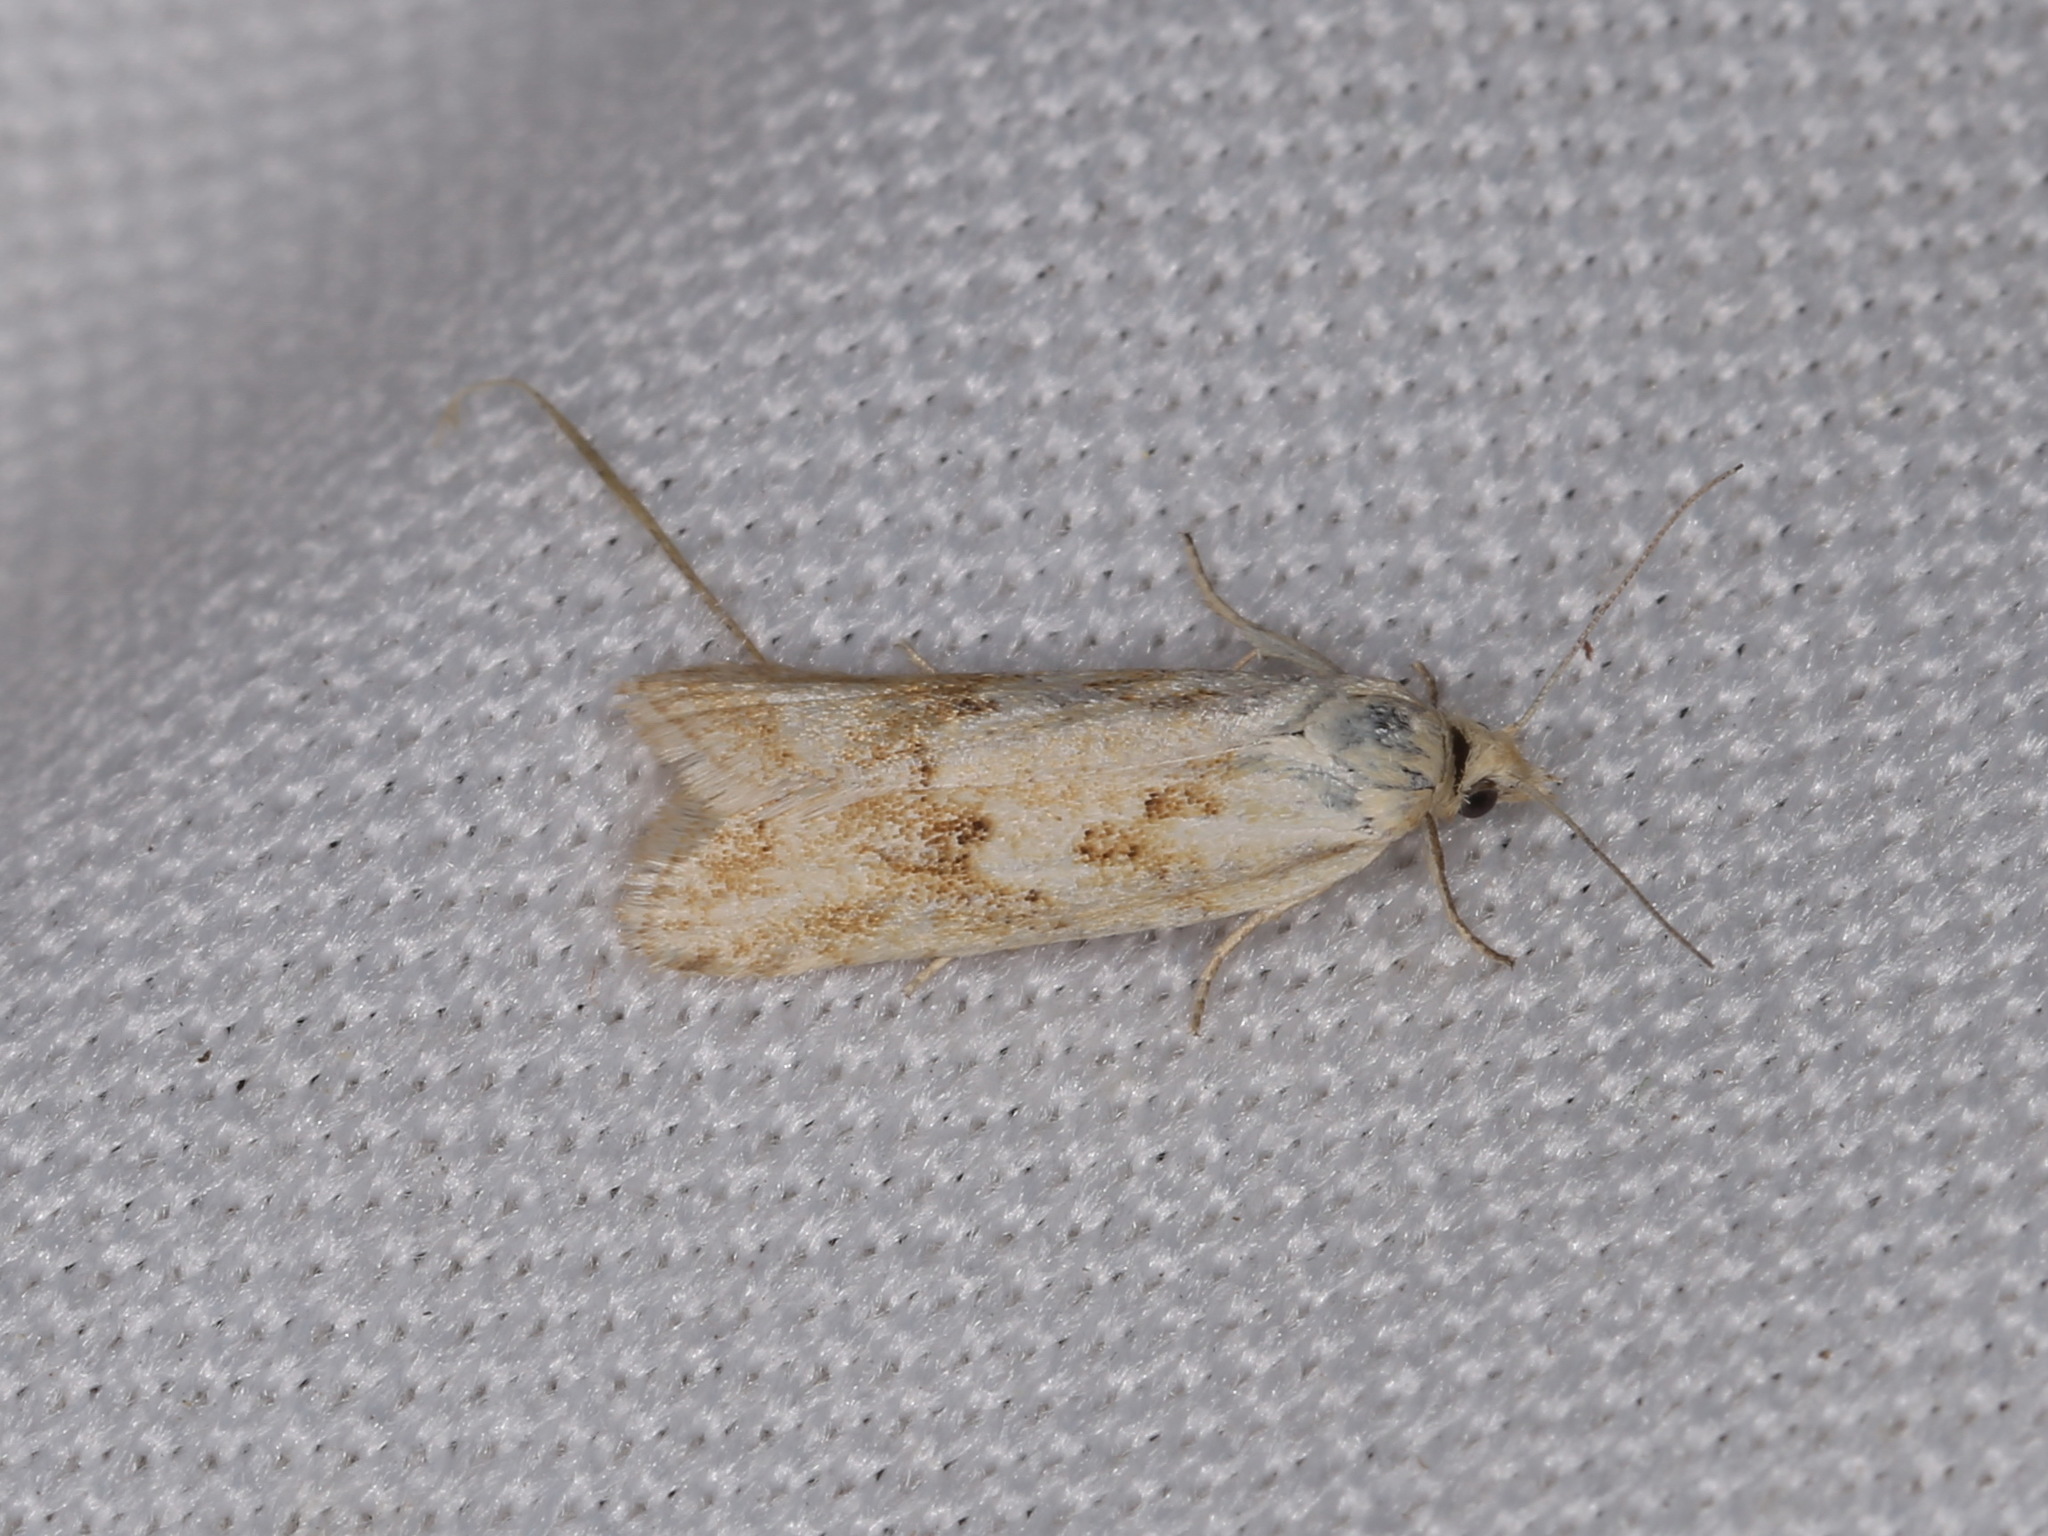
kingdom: Animalia
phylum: Arthropoda
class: Insecta
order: Lepidoptera
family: Tortricidae
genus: Cnephasia
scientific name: Cnephasia longana
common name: Long-winged shade
